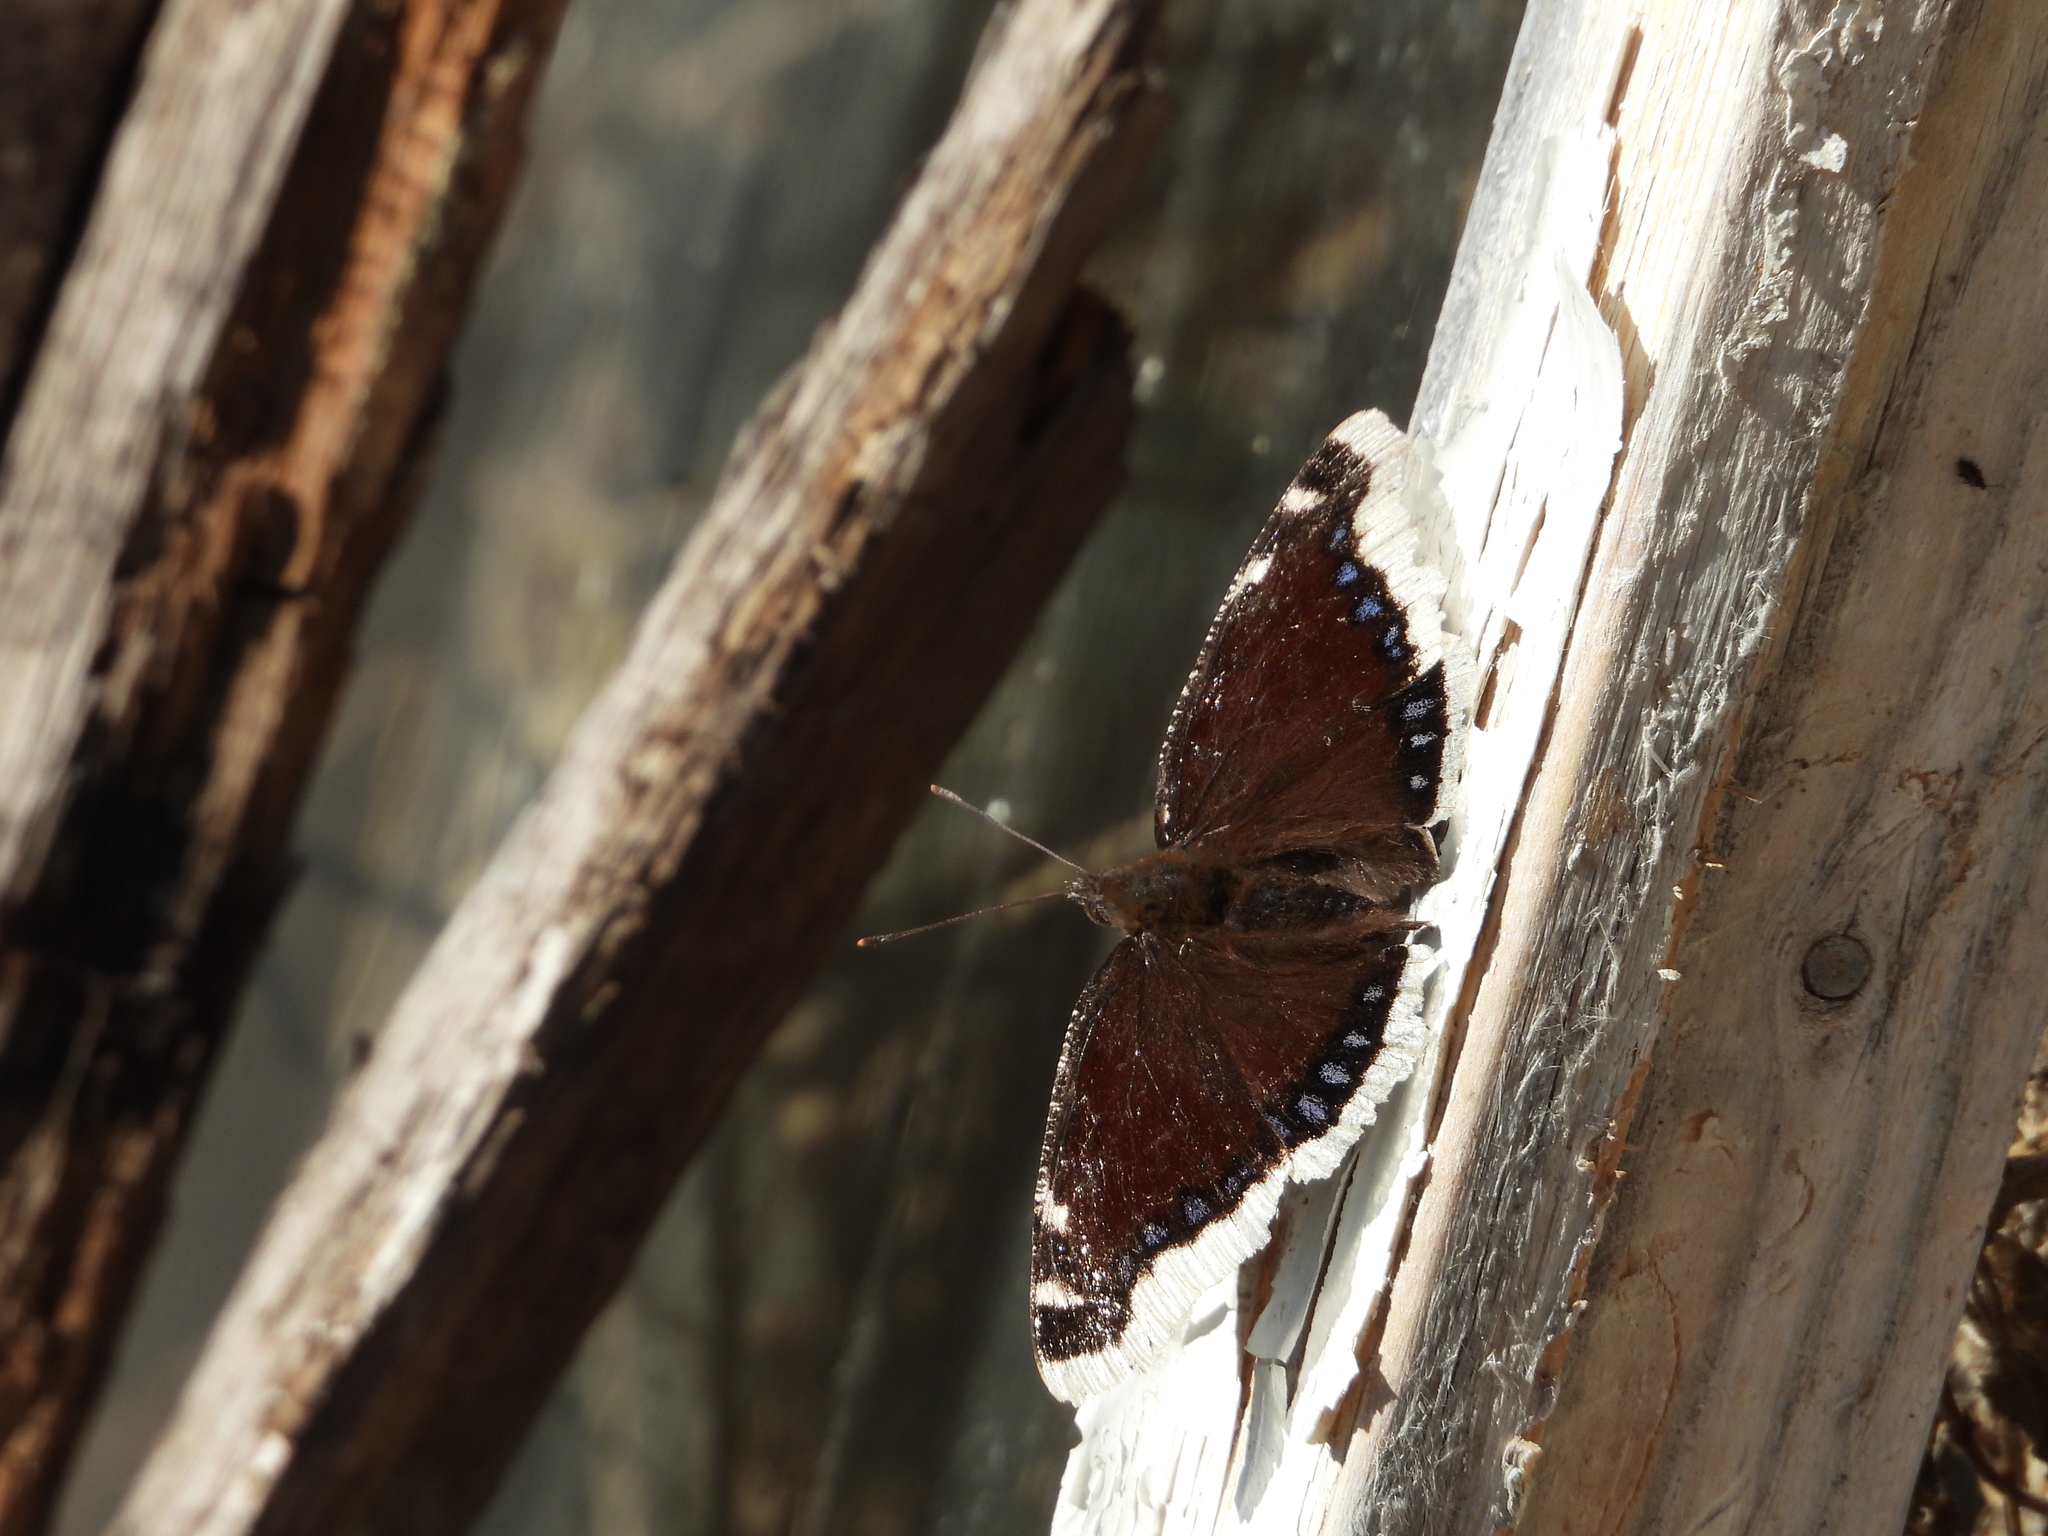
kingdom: Animalia
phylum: Arthropoda
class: Insecta
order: Lepidoptera
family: Nymphalidae
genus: Nymphalis
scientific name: Nymphalis antiopa
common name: Camberwell beauty
